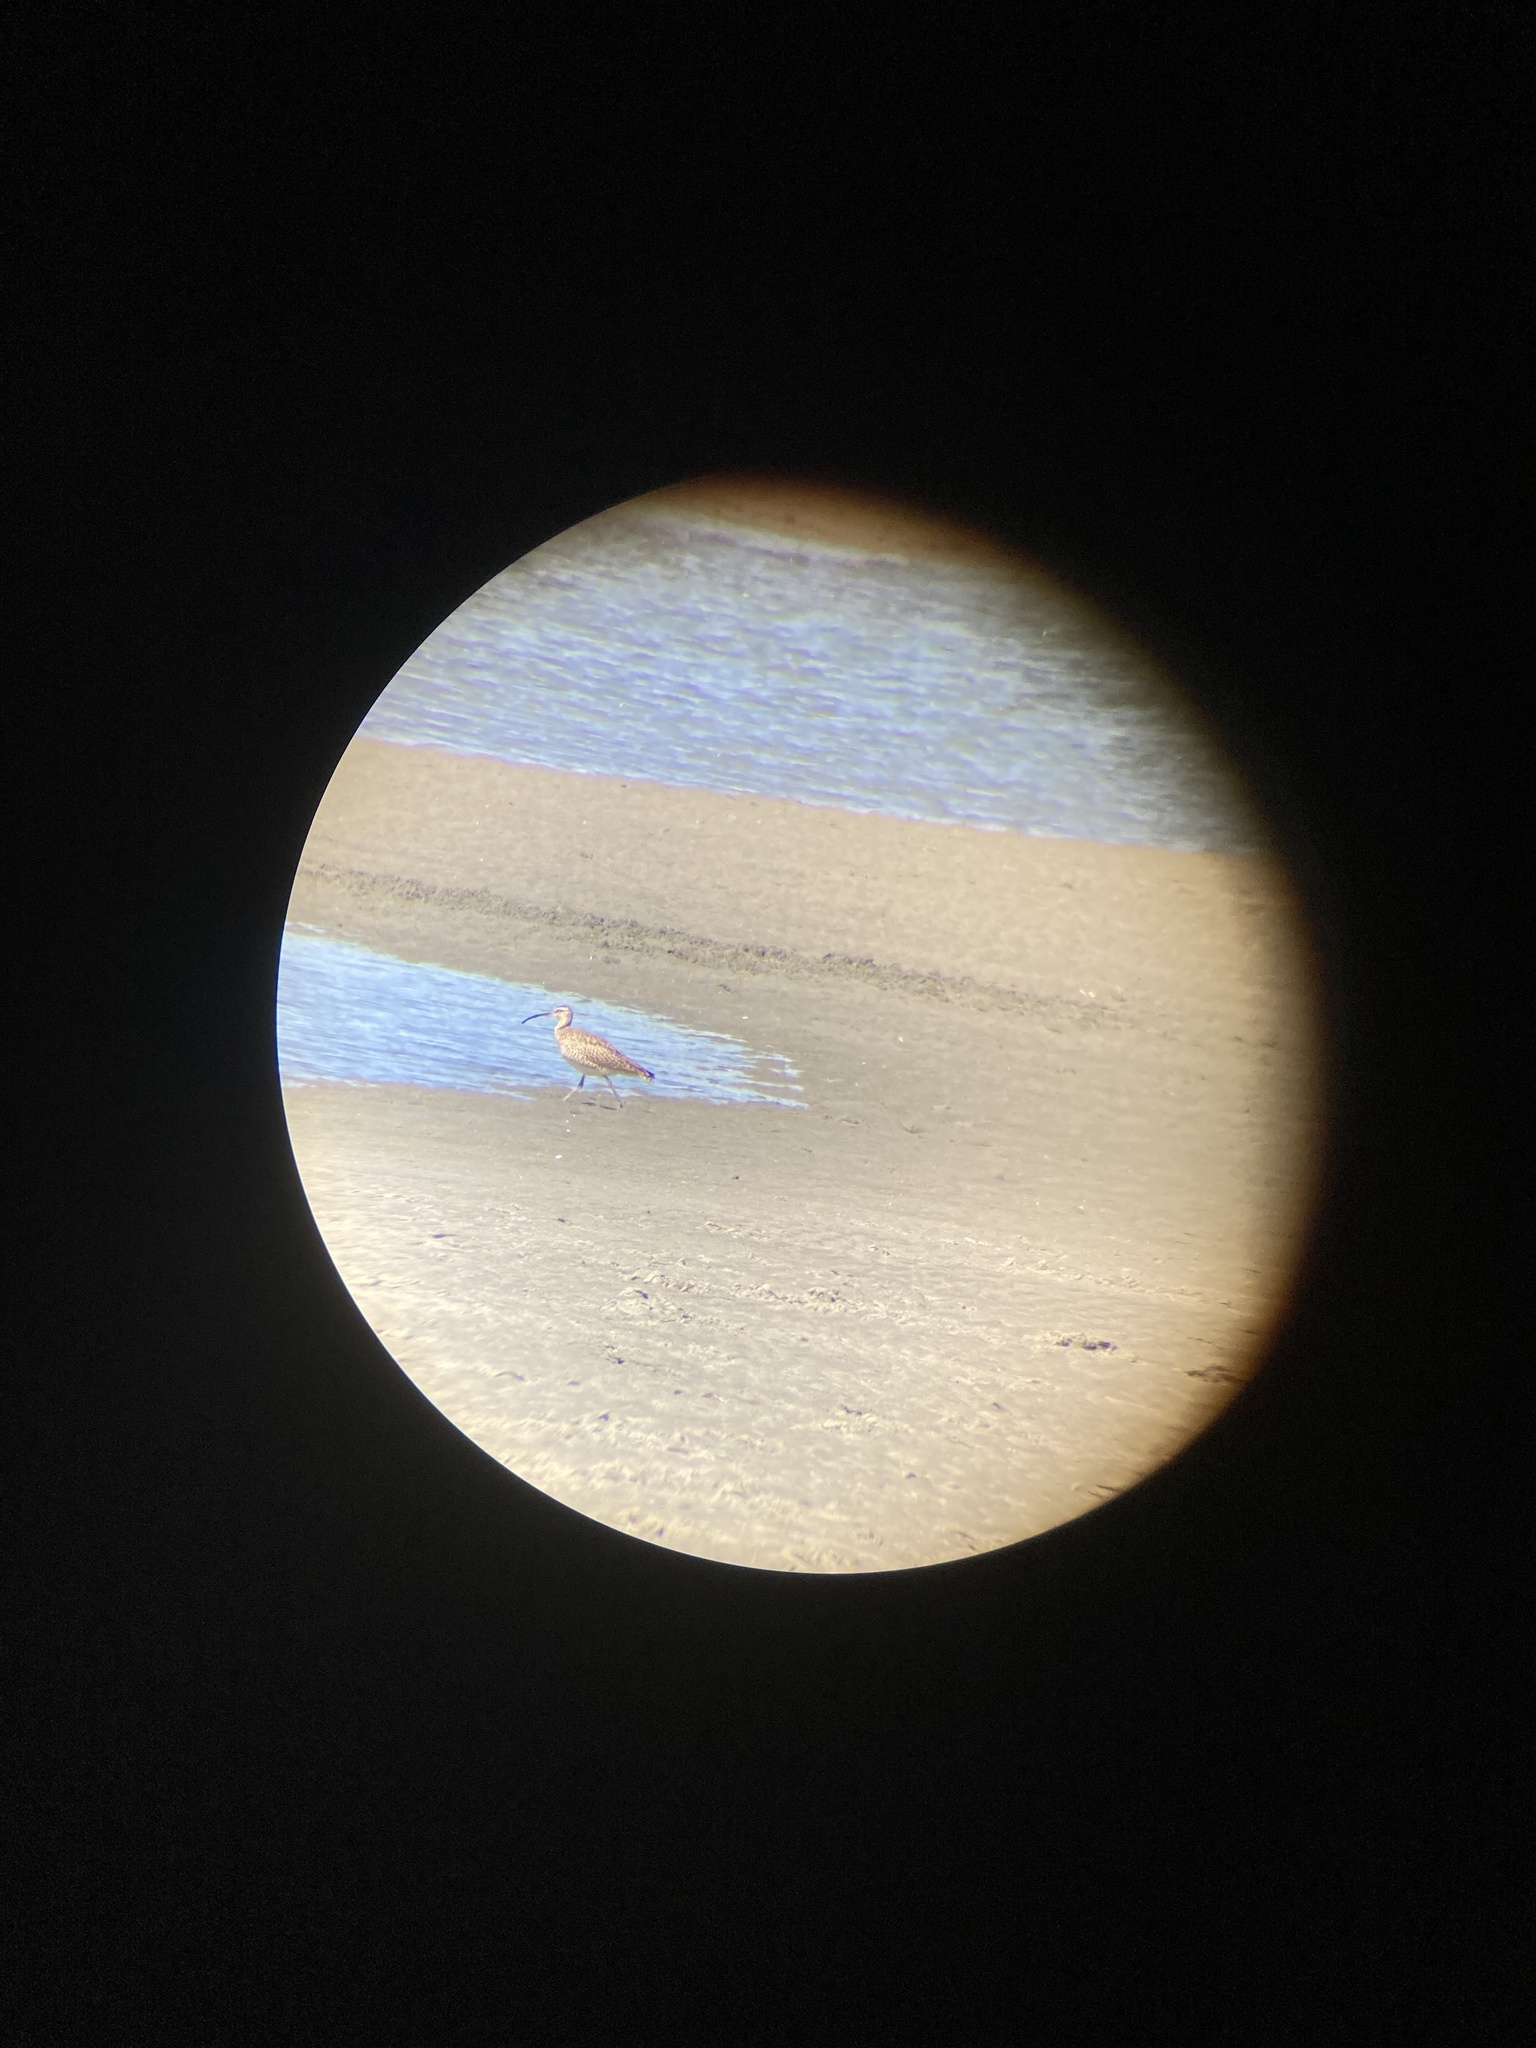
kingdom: Animalia
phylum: Chordata
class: Aves
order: Charadriiformes
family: Scolopacidae
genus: Numenius
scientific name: Numenius phaeopus
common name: Whimbrel
